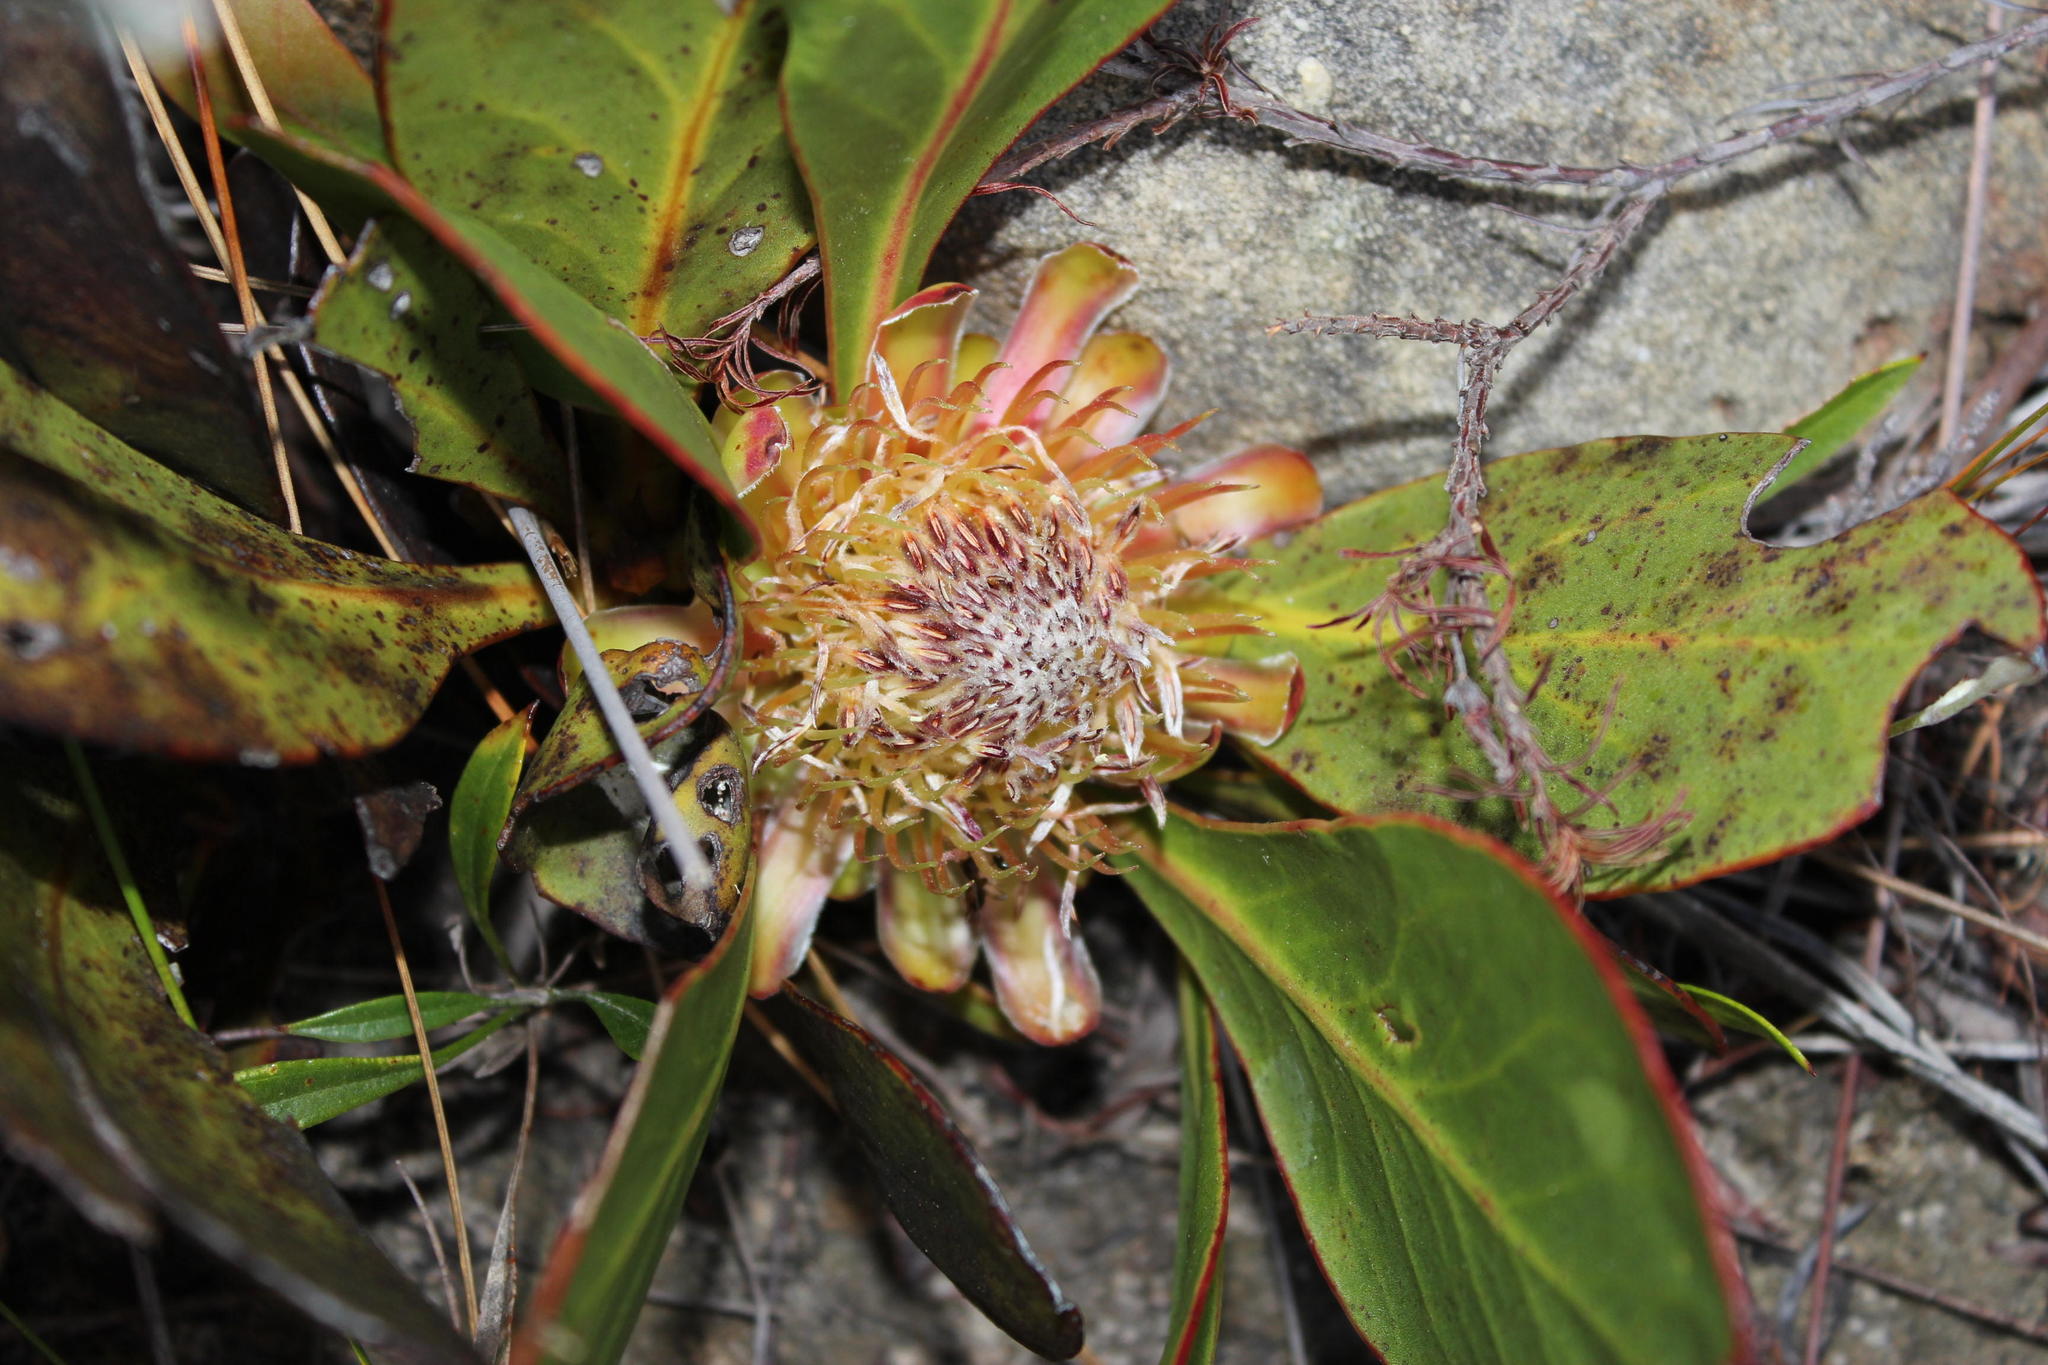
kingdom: Plantae
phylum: Tracheophyta
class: Magnoliopsida
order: Proteales
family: Proteaceae
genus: Protea
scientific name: Protea acaulos
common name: Common ground sugarbush
